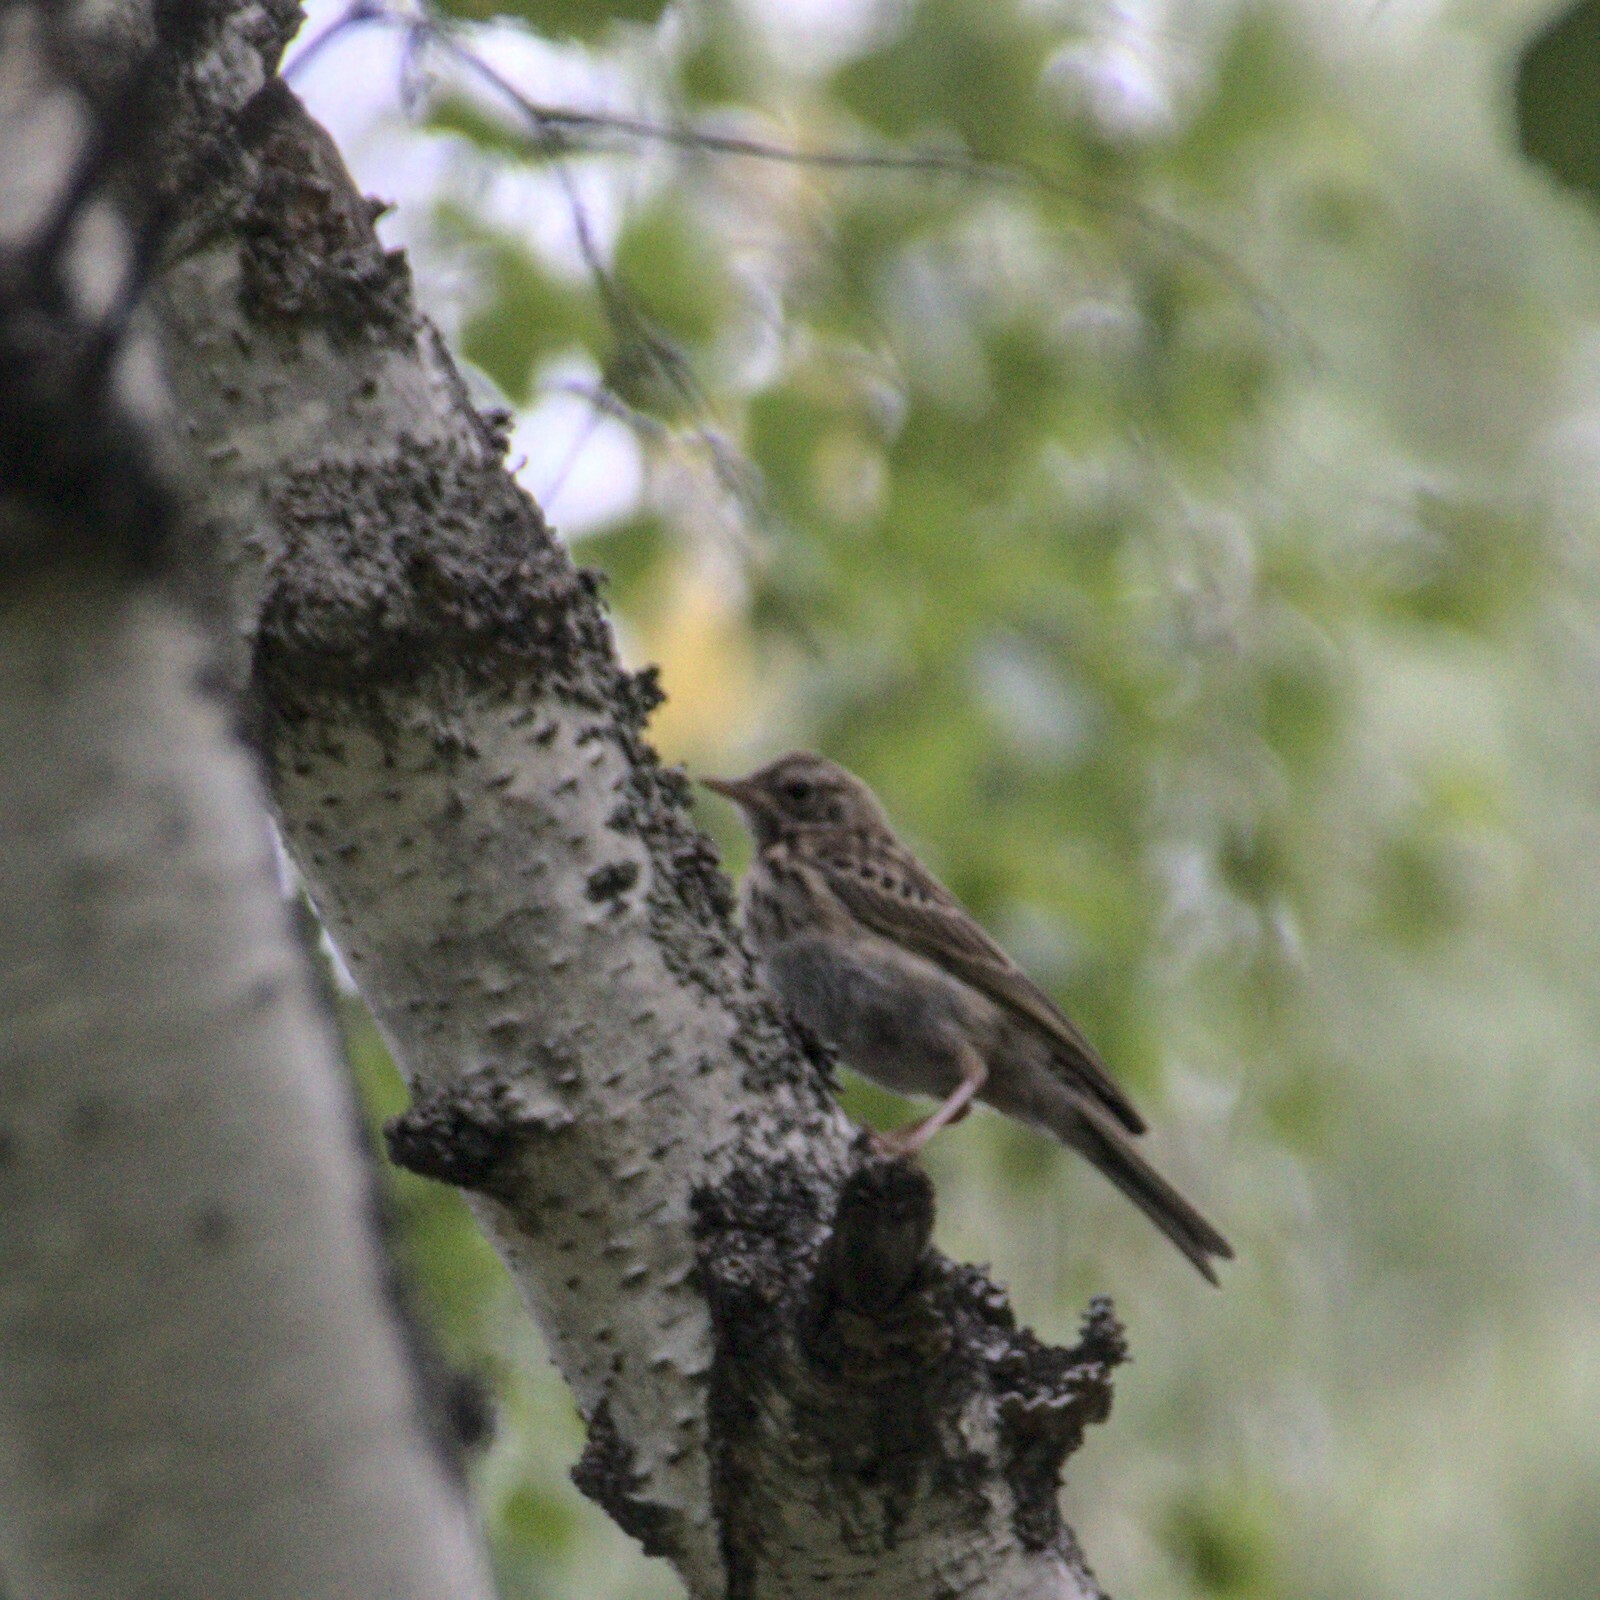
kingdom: Animalia
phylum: Chordata
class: Aves
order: Passeriformes
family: Motacillidae
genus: Anthus
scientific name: Anthus trivialis
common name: Tree pipit
